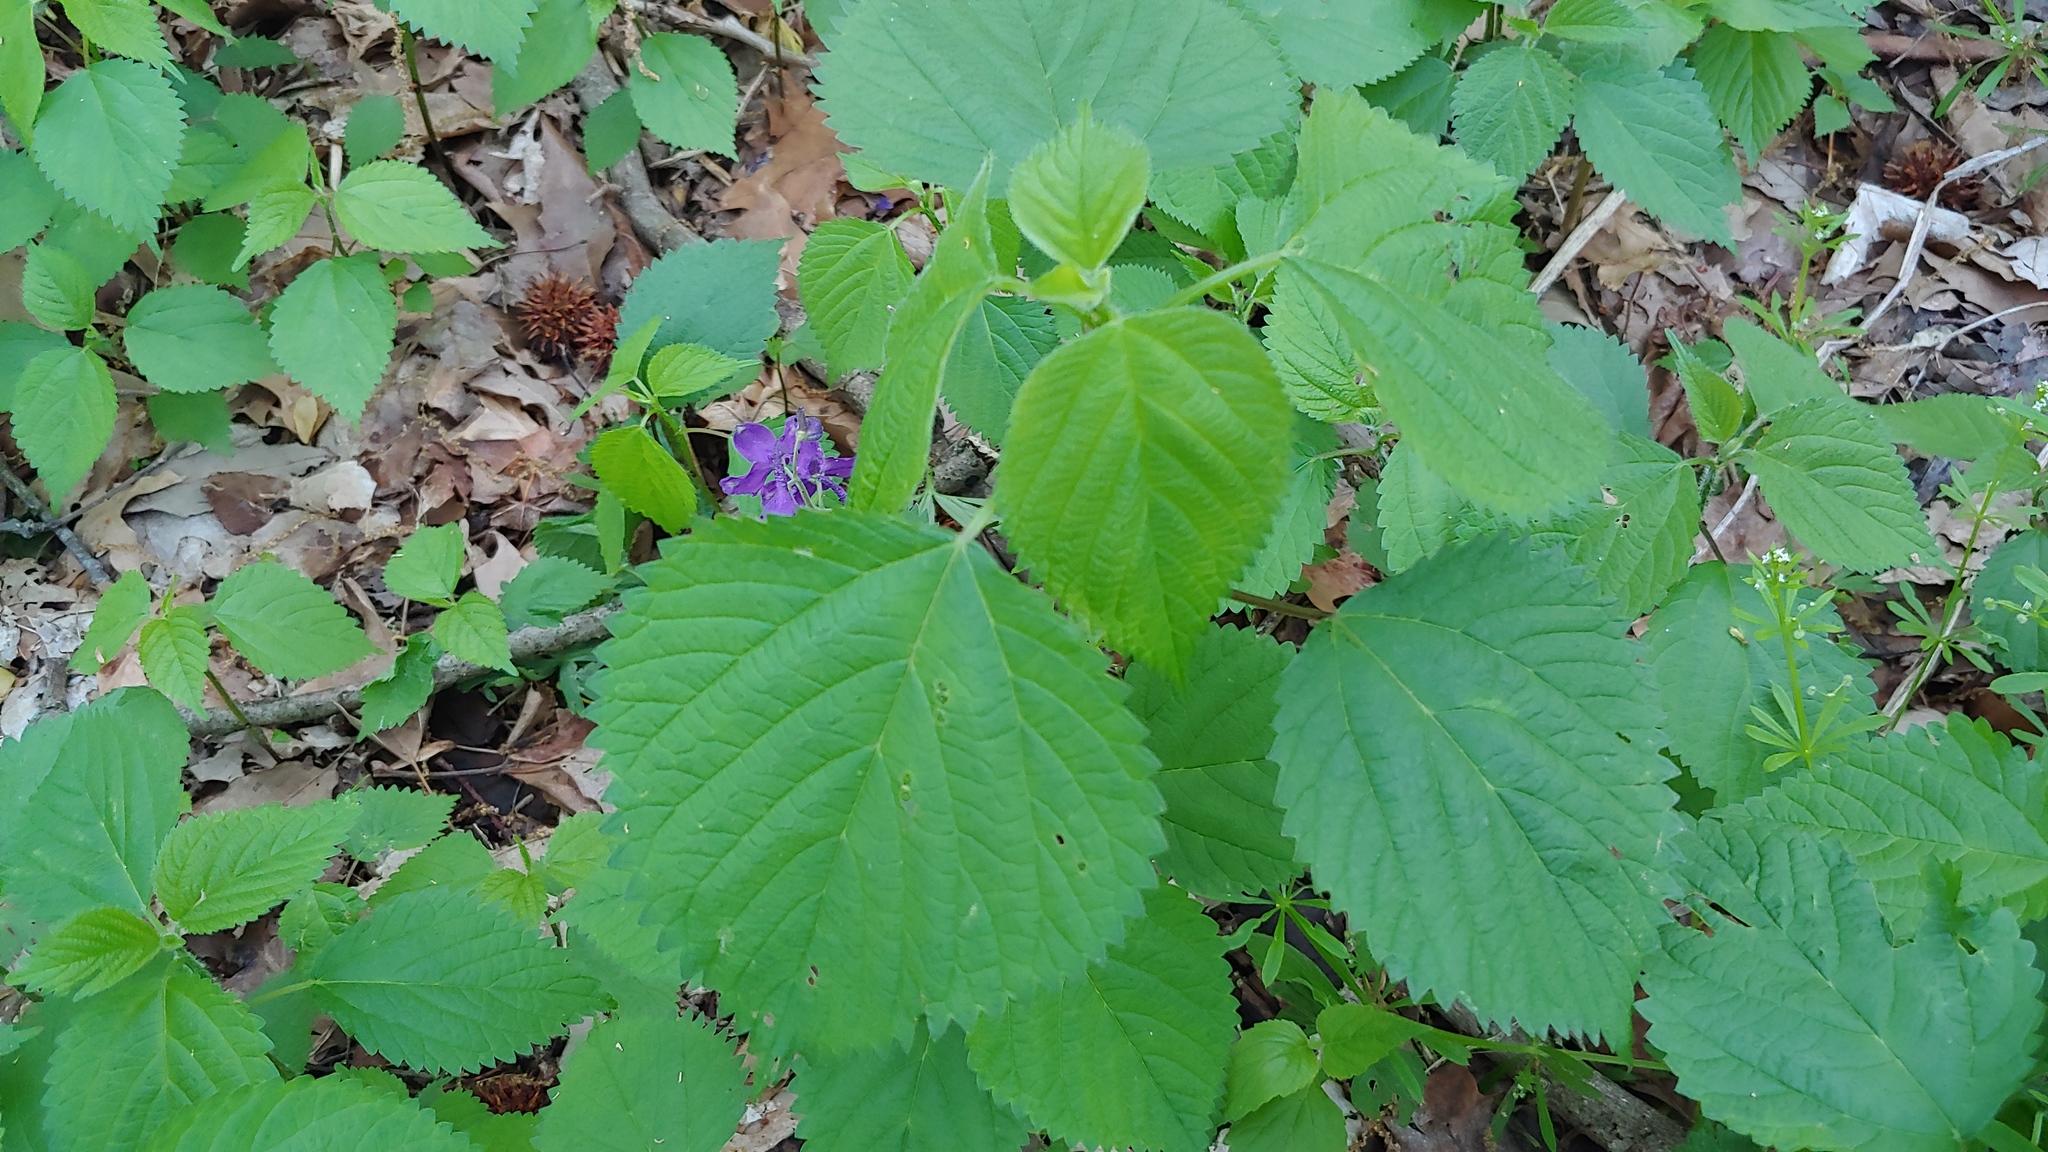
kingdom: Plantae
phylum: Tracheophyta
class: Magnoliopsida
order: Rosales
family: Urticaceae
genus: Laportea
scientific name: Laportea canadensis
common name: Canada nettle
